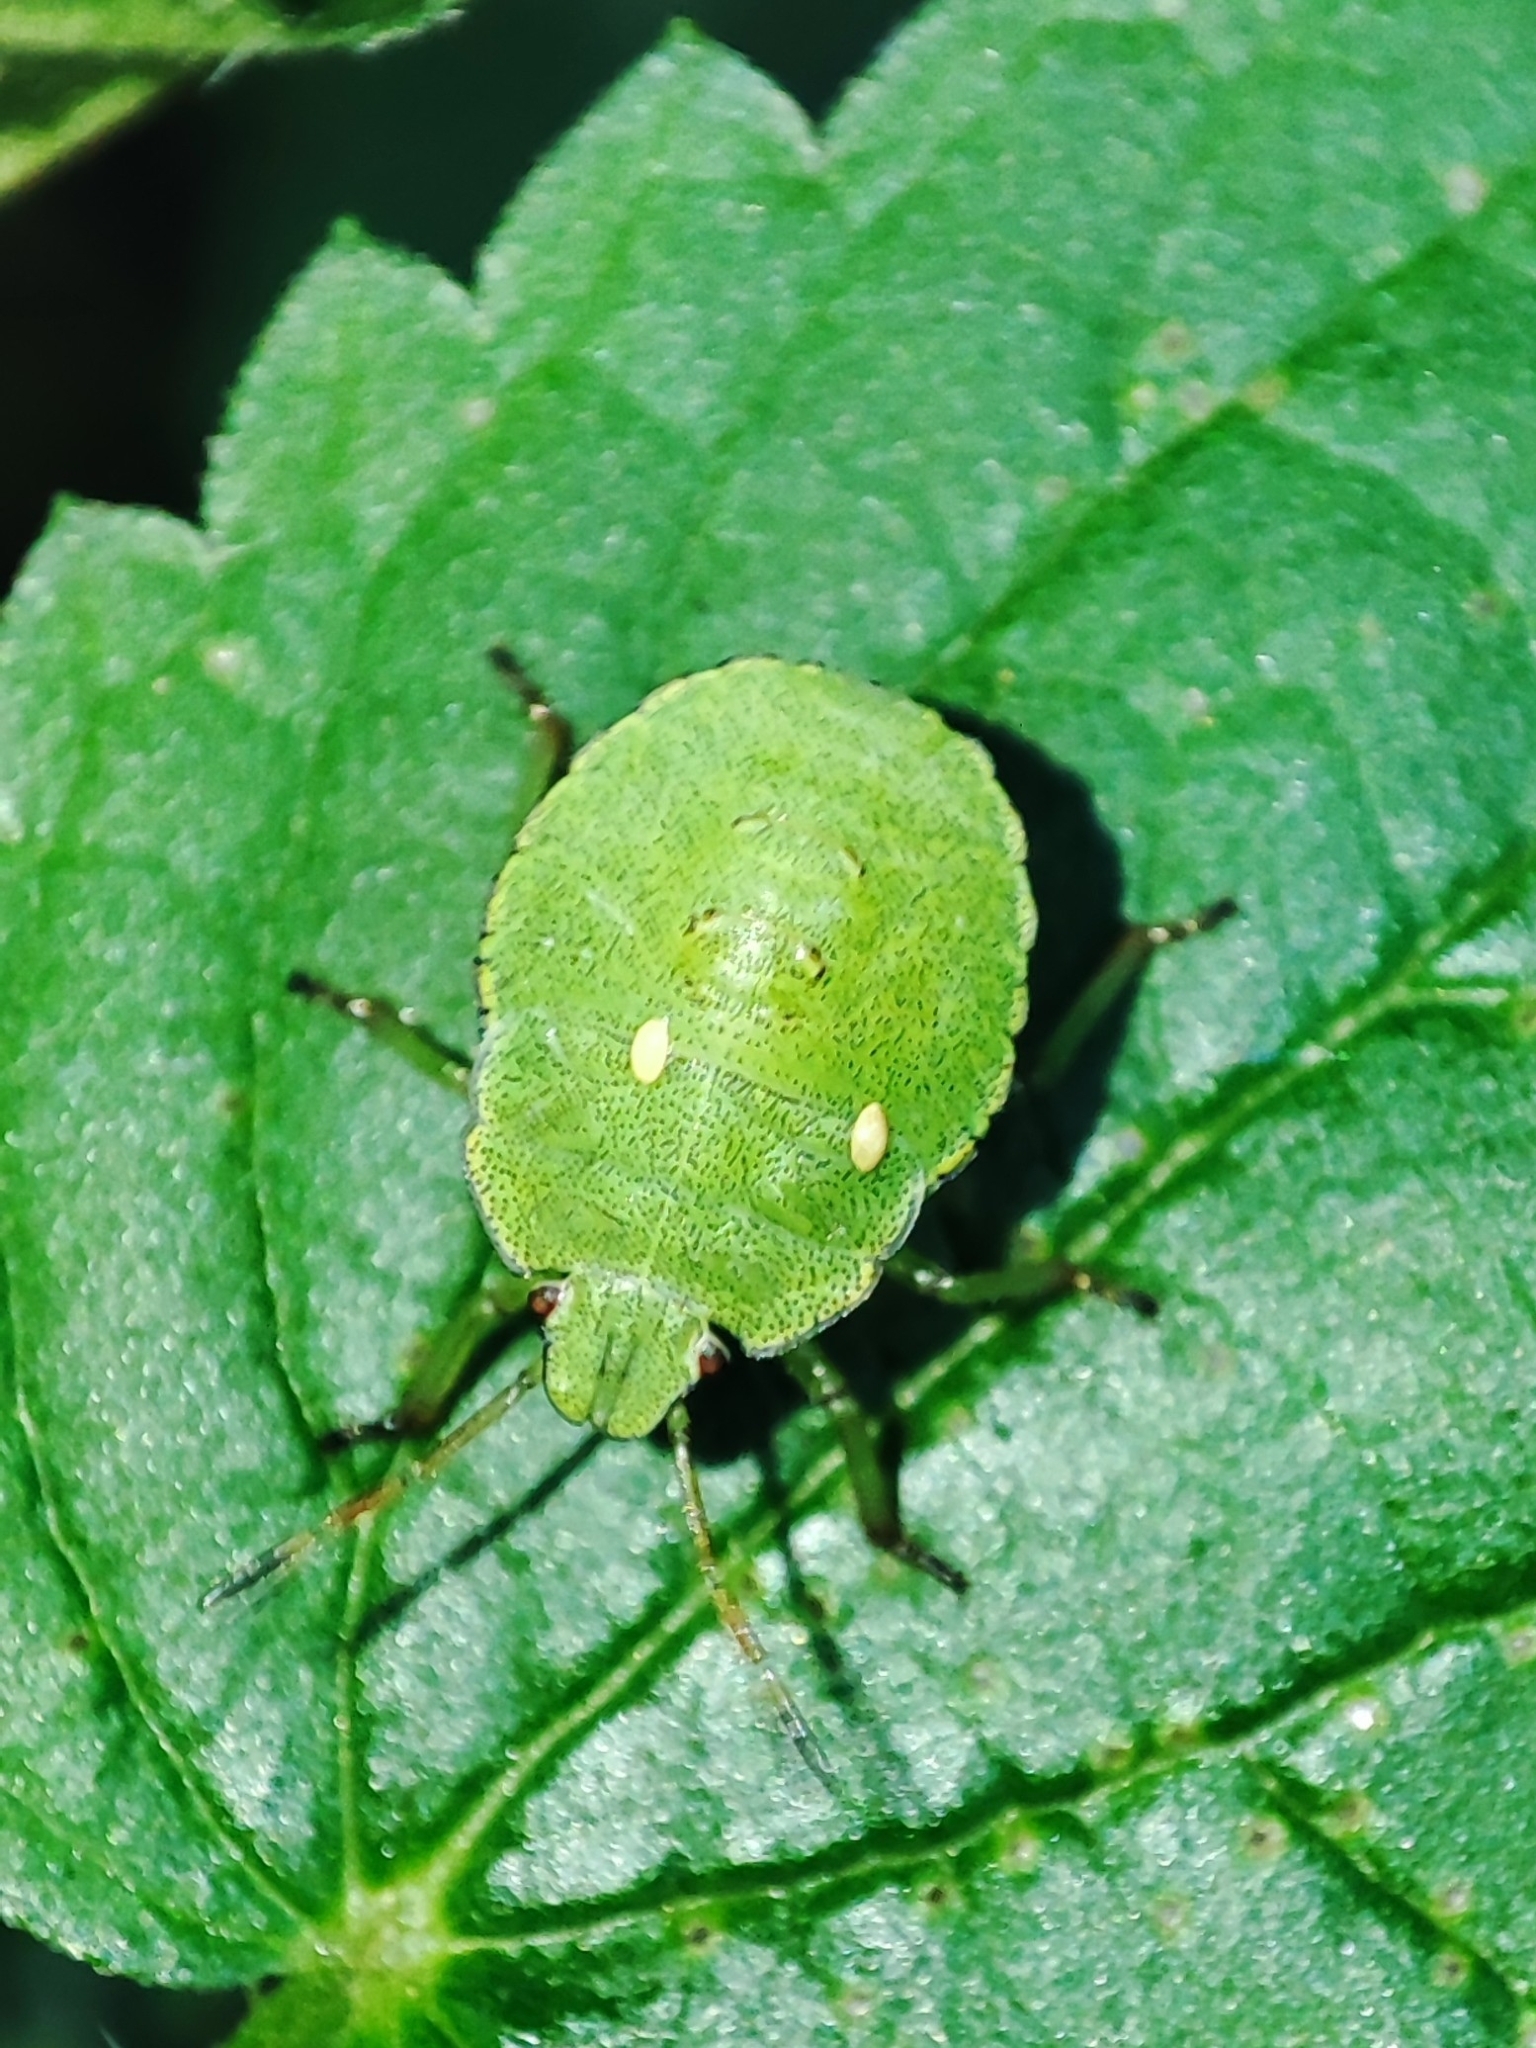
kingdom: Animalia
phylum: Arthropoda
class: Insecta
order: Hemiptera
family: Pentatomidae
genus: Palomena
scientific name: Palomena prasina
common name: Green shieldbug
